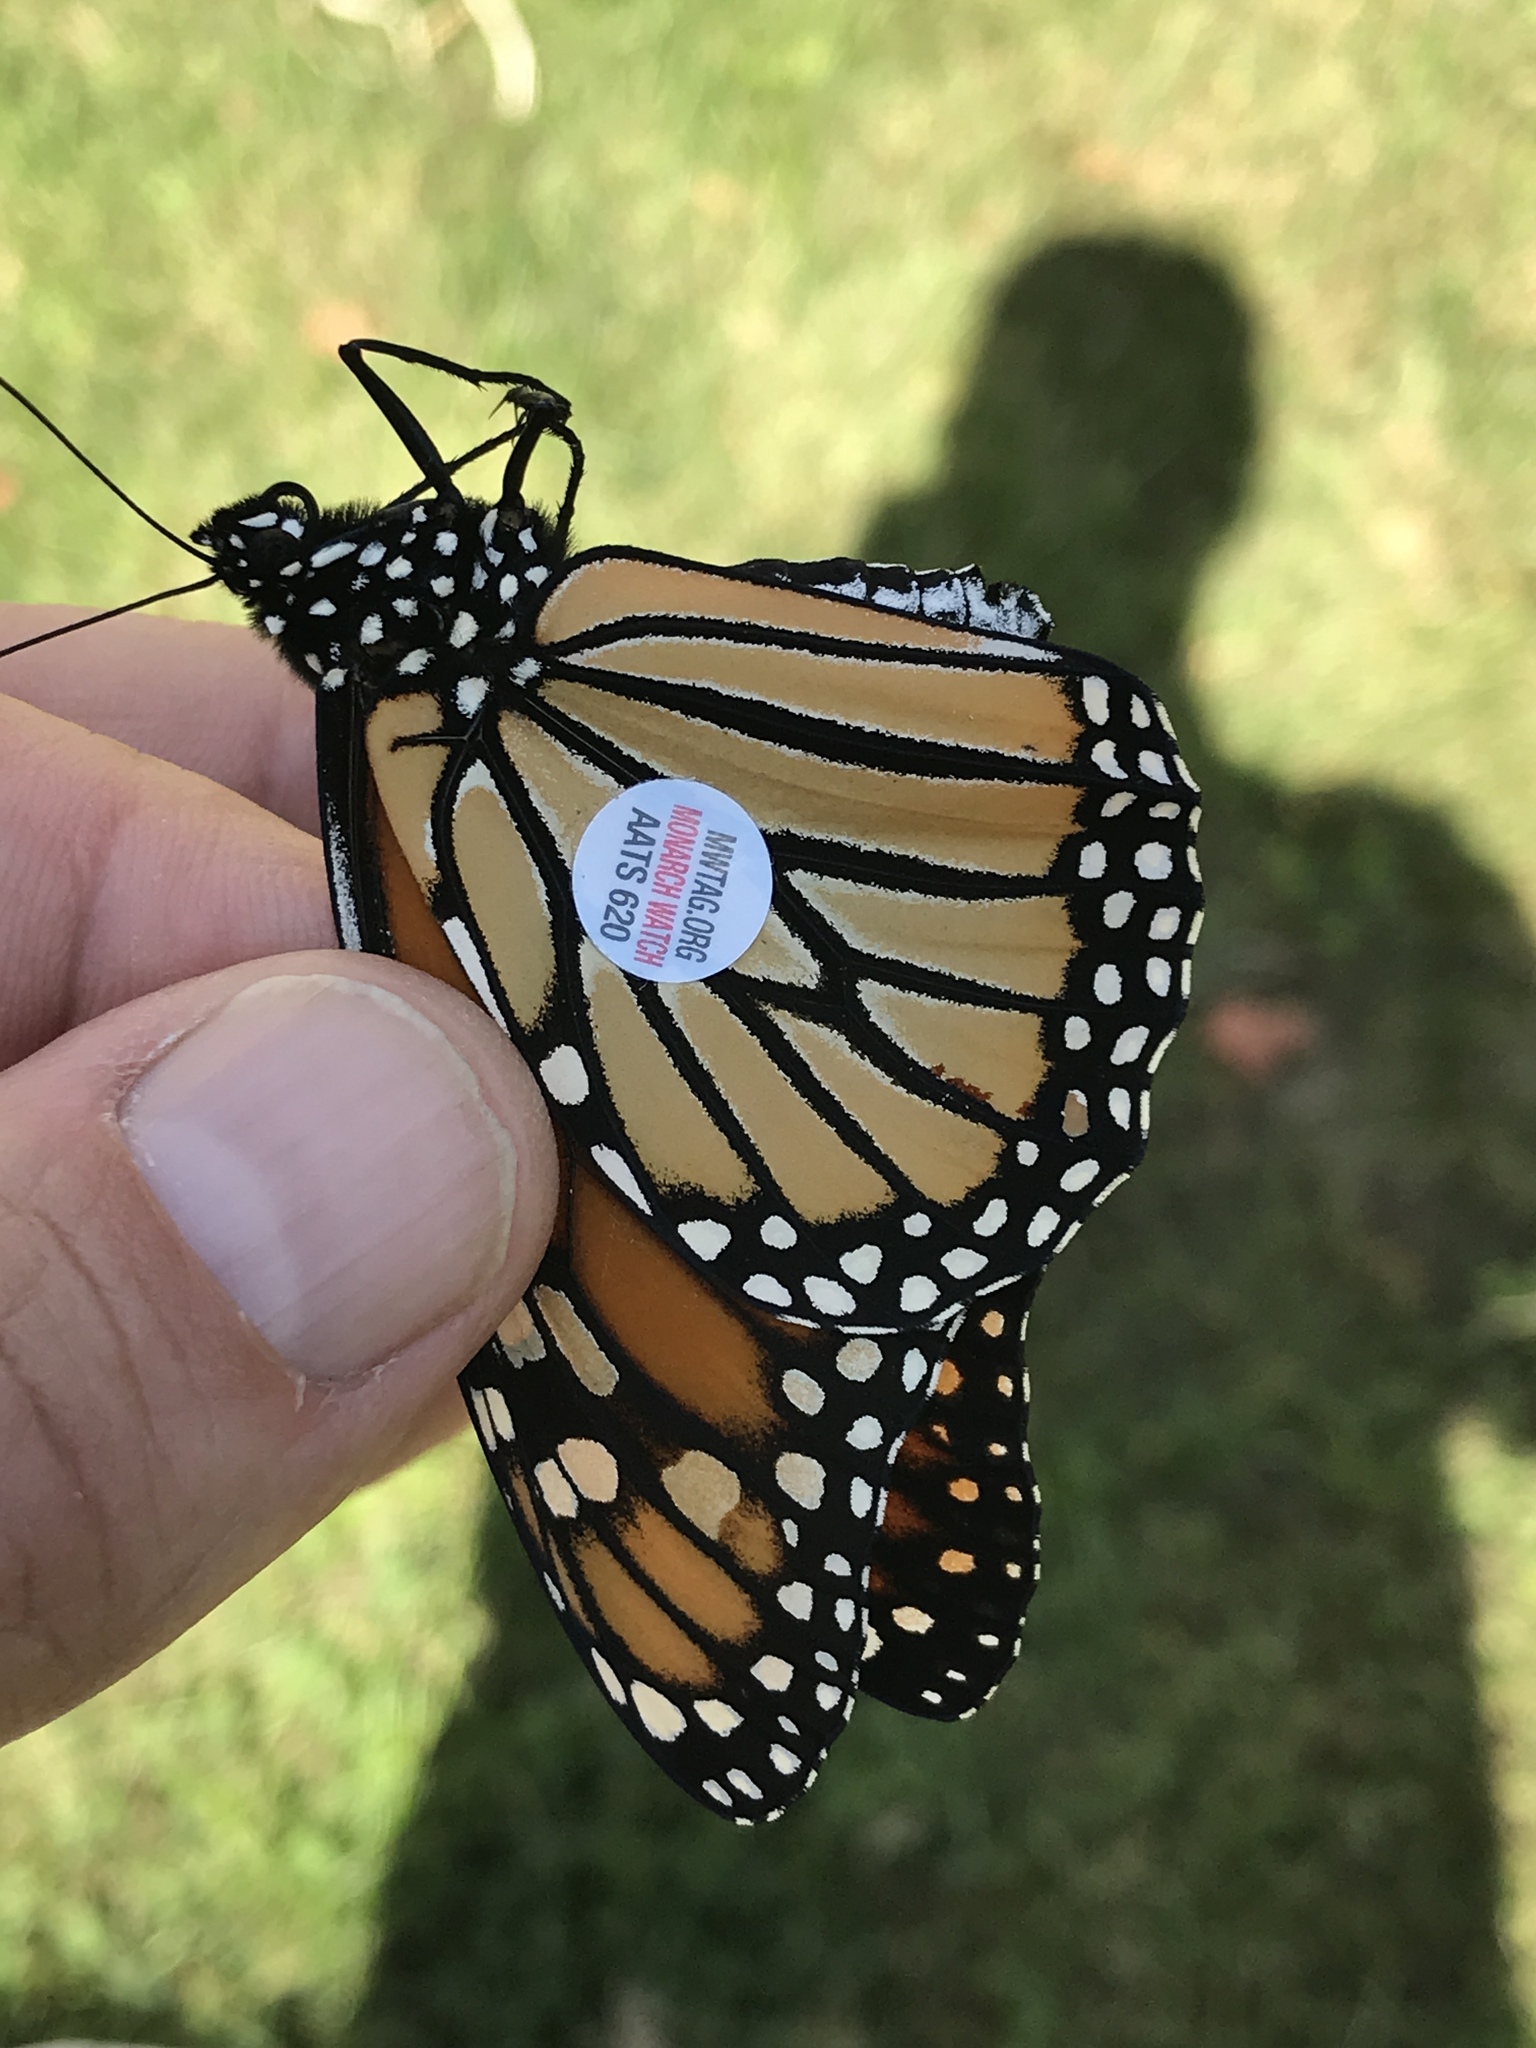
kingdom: Animalia
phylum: Arthropoda
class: Insecta
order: Lepidoptera
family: Nymphalidae
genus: Danaus
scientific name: Danaus plexippus
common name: Monarch
